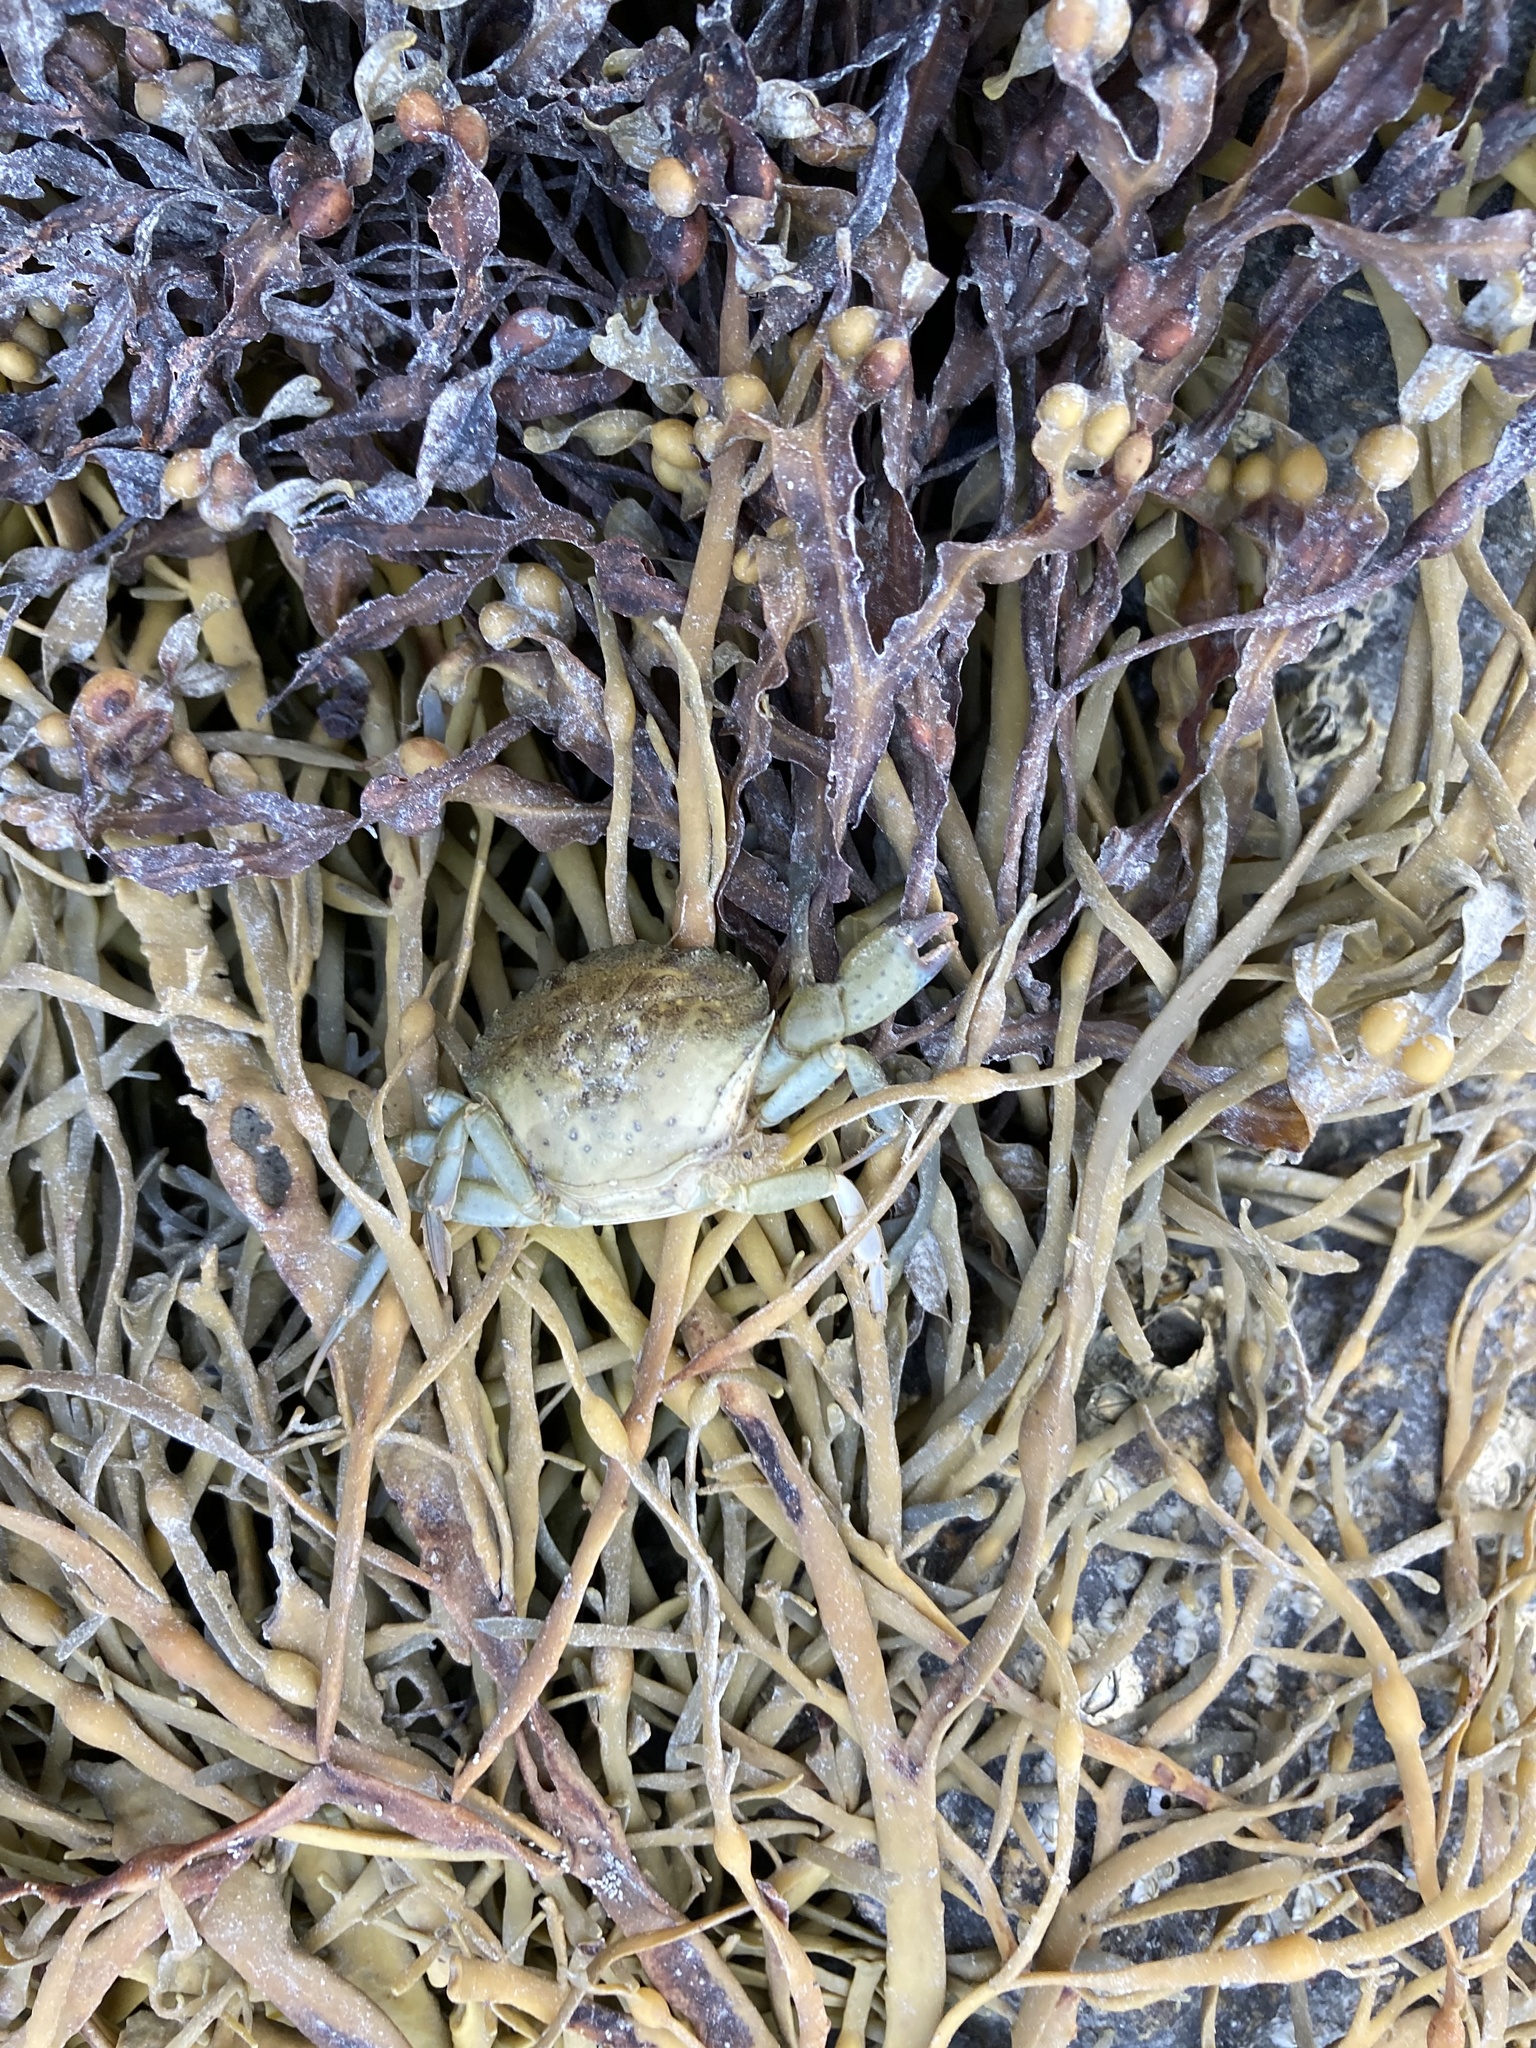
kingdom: Animalia
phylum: Arthropoda
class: Malacostraca
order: Decapoda
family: Carcinidae
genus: Carcinus
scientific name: Carcinus maenas
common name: European green crab
